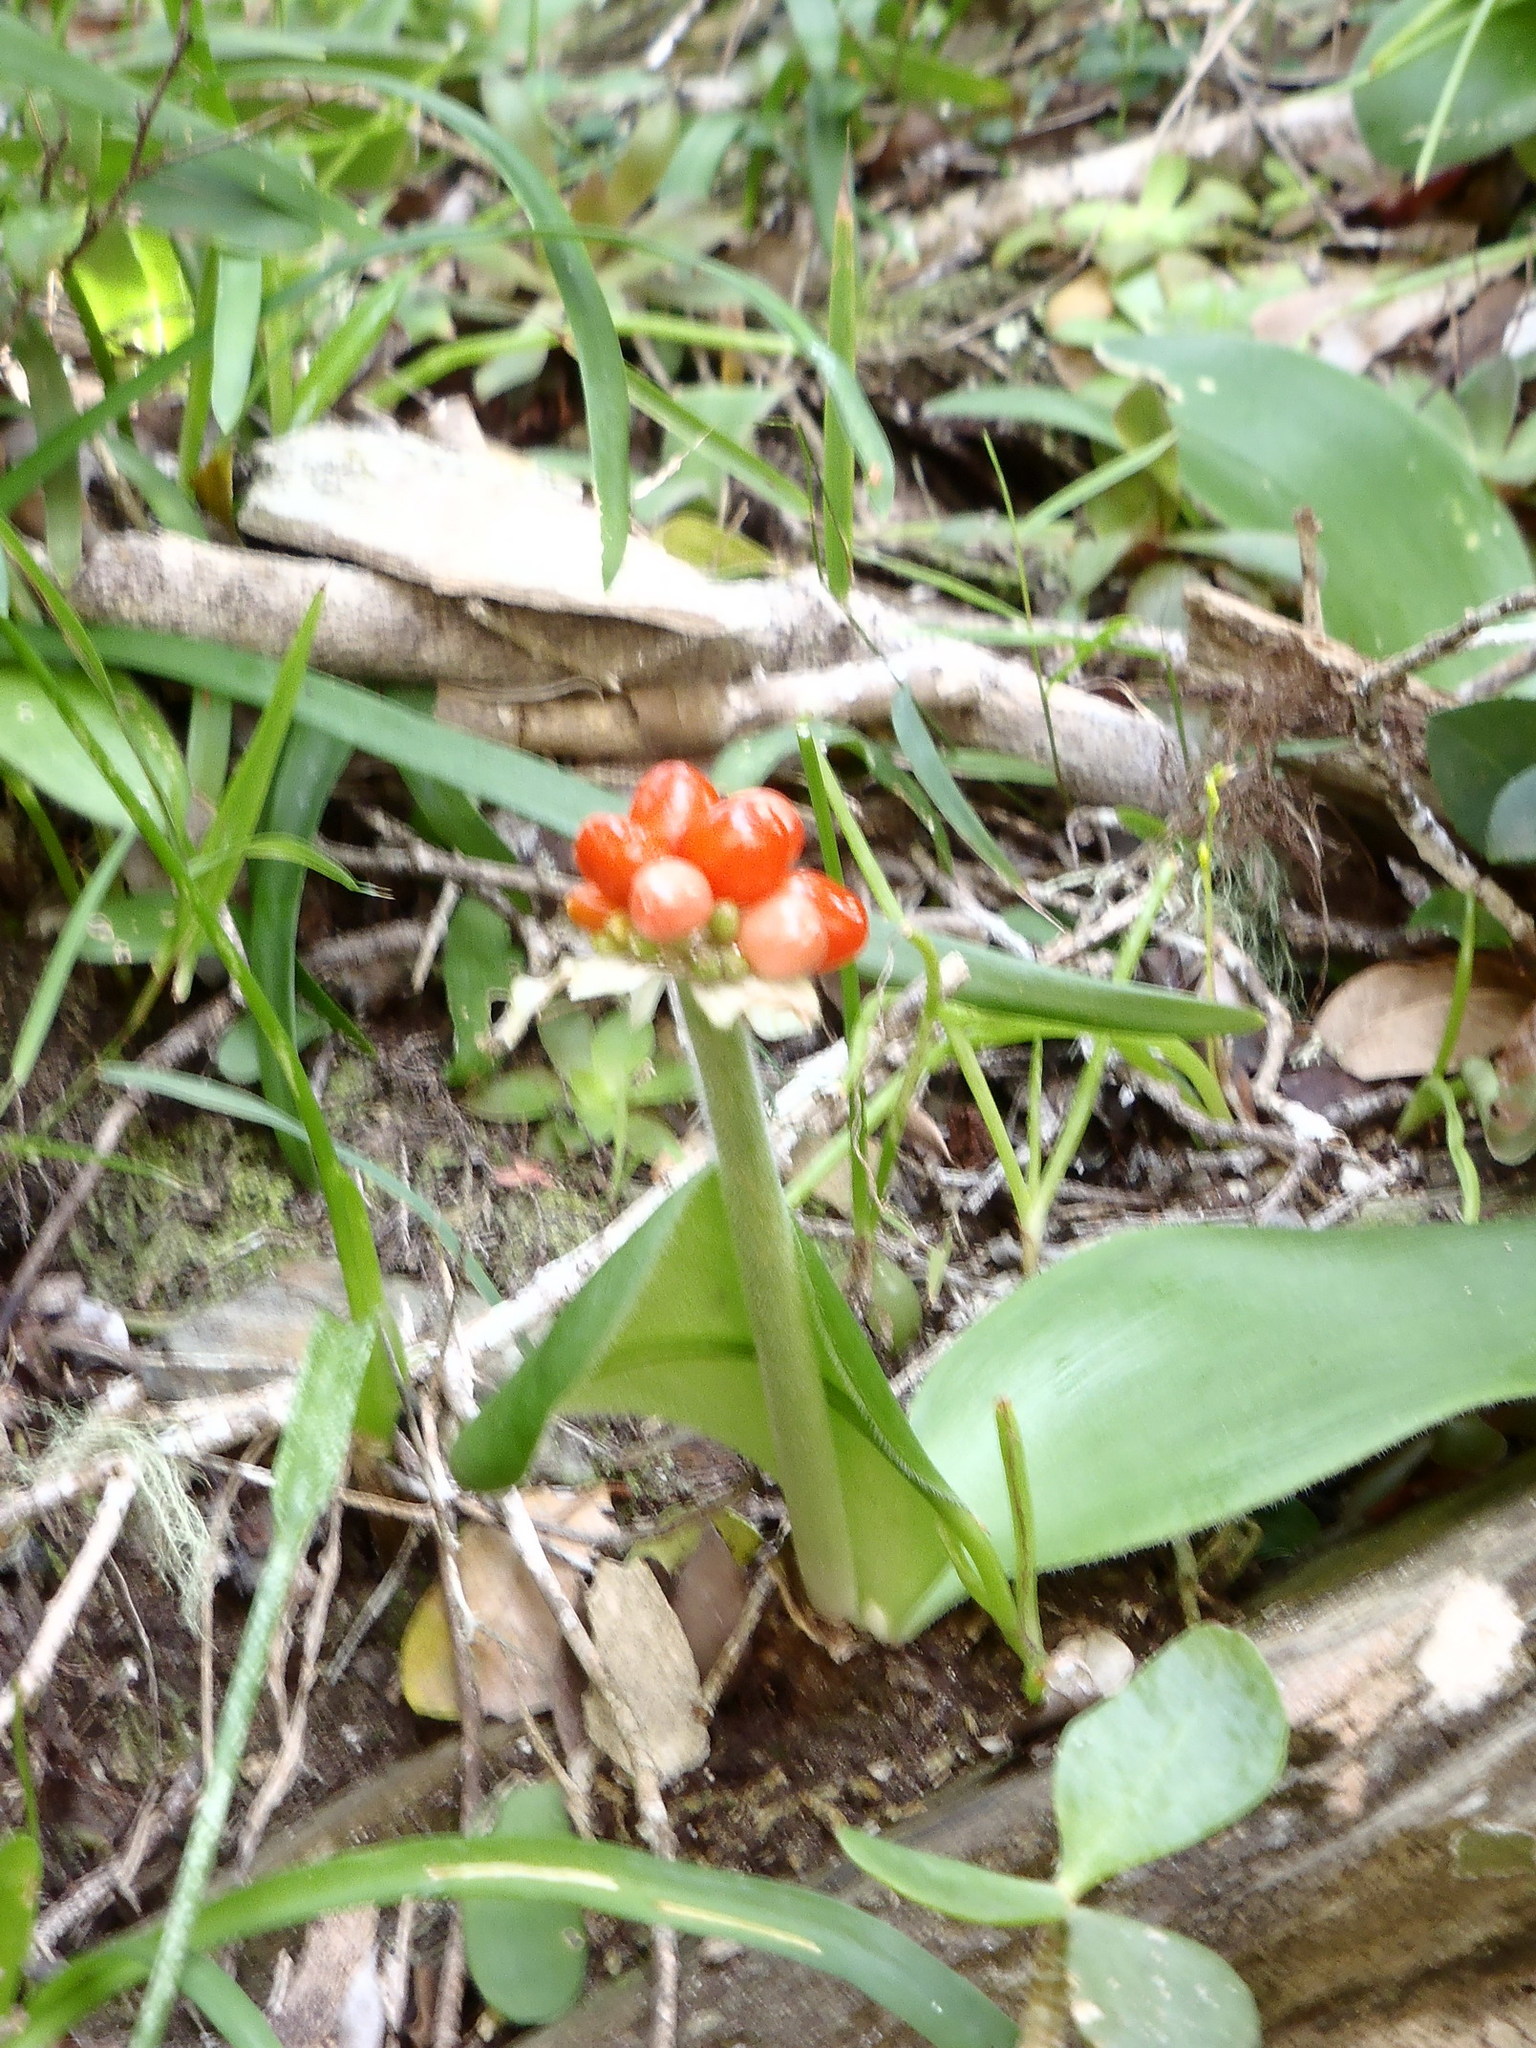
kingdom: Plantae
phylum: Tracheophyta
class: Liliopsida
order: Asparagales
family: Amaryllidaceae
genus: Haemanthus
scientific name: Haemanthus albiflos
